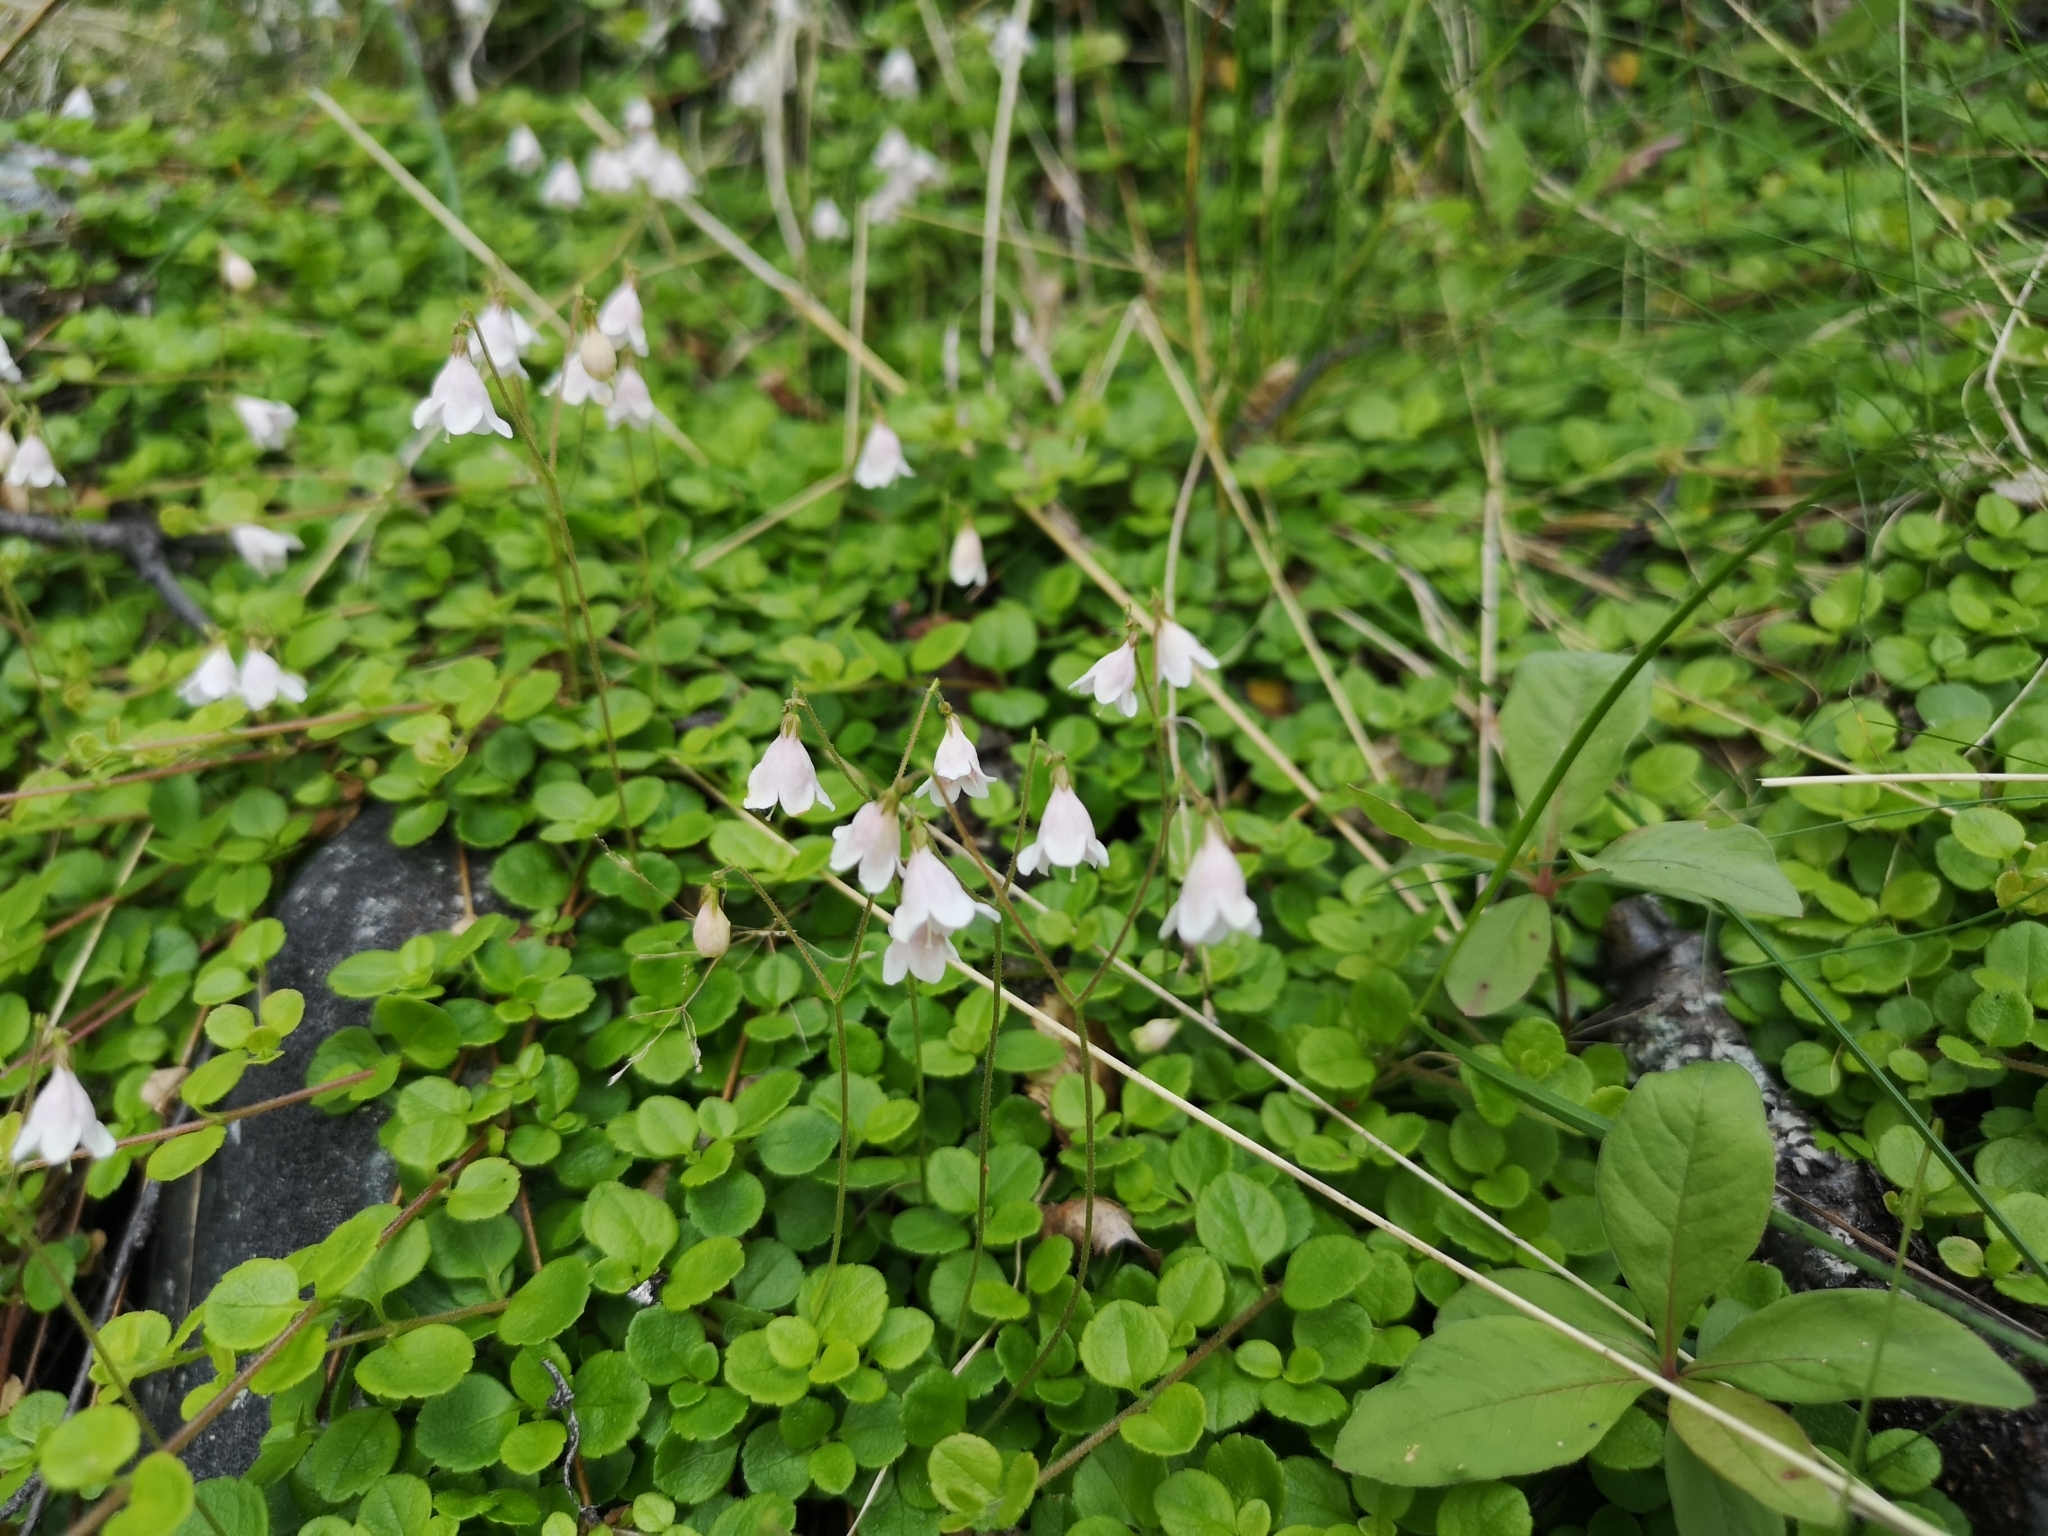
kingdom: Plantae
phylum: Tracheophyta
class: Magnoliopsida
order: Dipsacales
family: Caprifoliaceae
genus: Linnaea
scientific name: Linnaea borealis
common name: Twinflower
